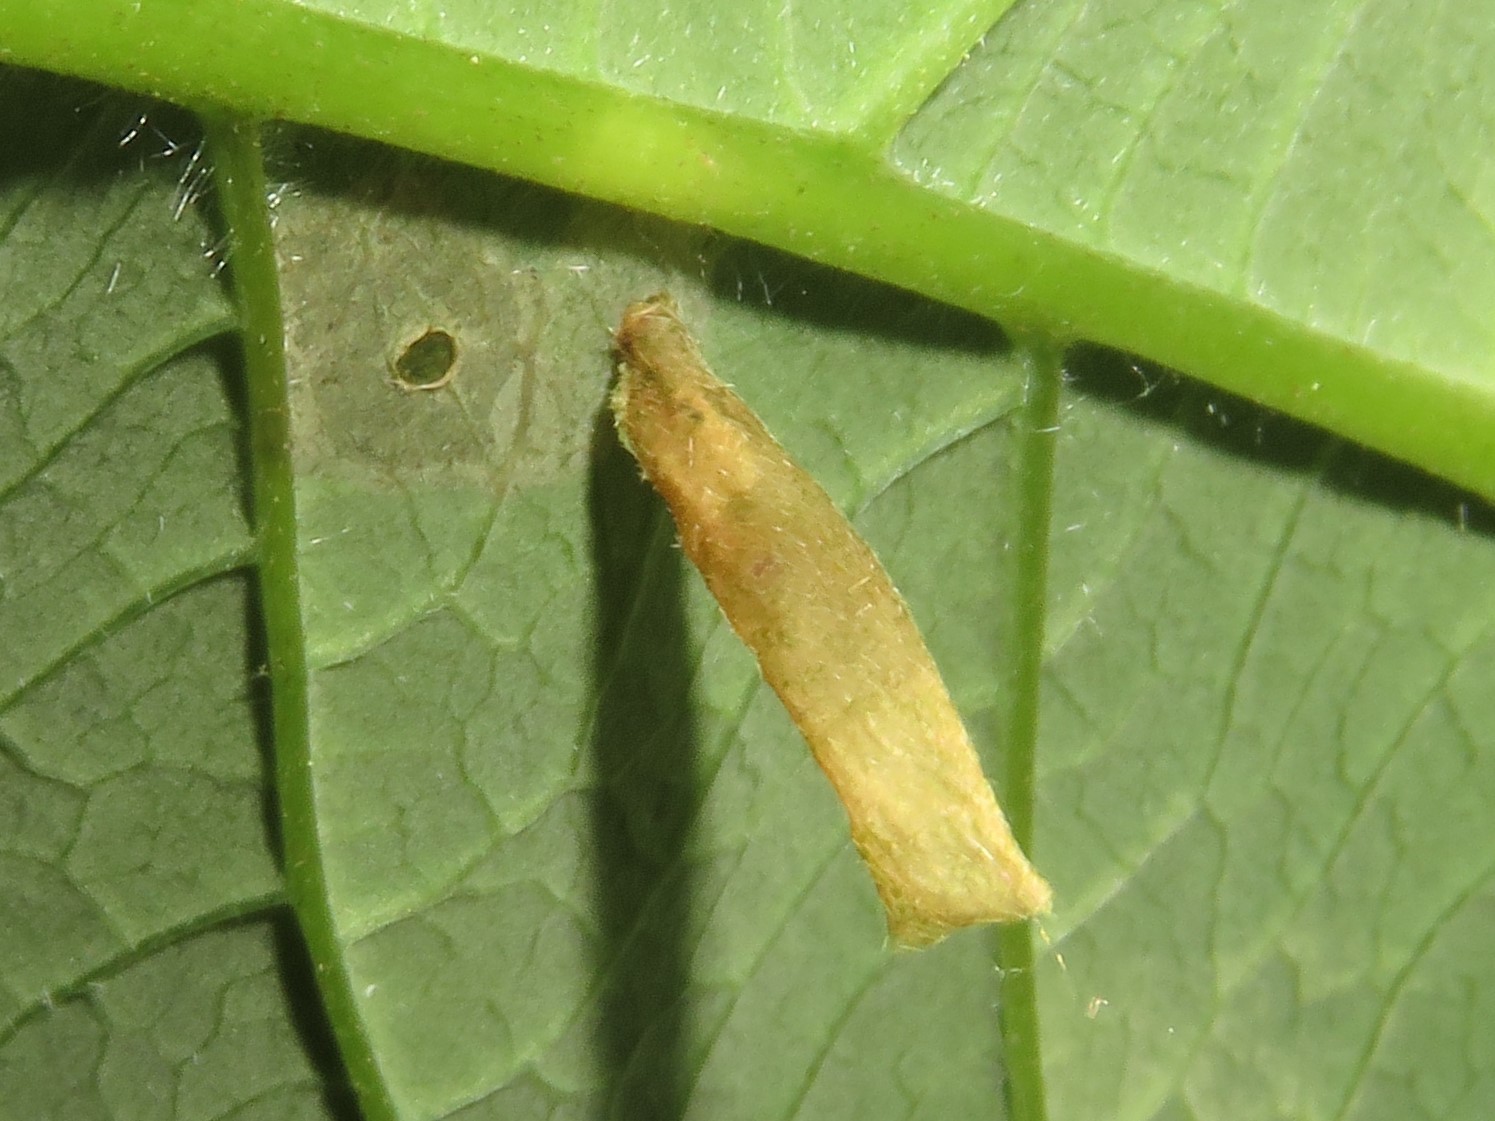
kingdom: Animalia
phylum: Arthropoda
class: Insecta
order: Lepidoptera
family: Coleophoridae
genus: Coleophora
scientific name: Coleophora cornella
